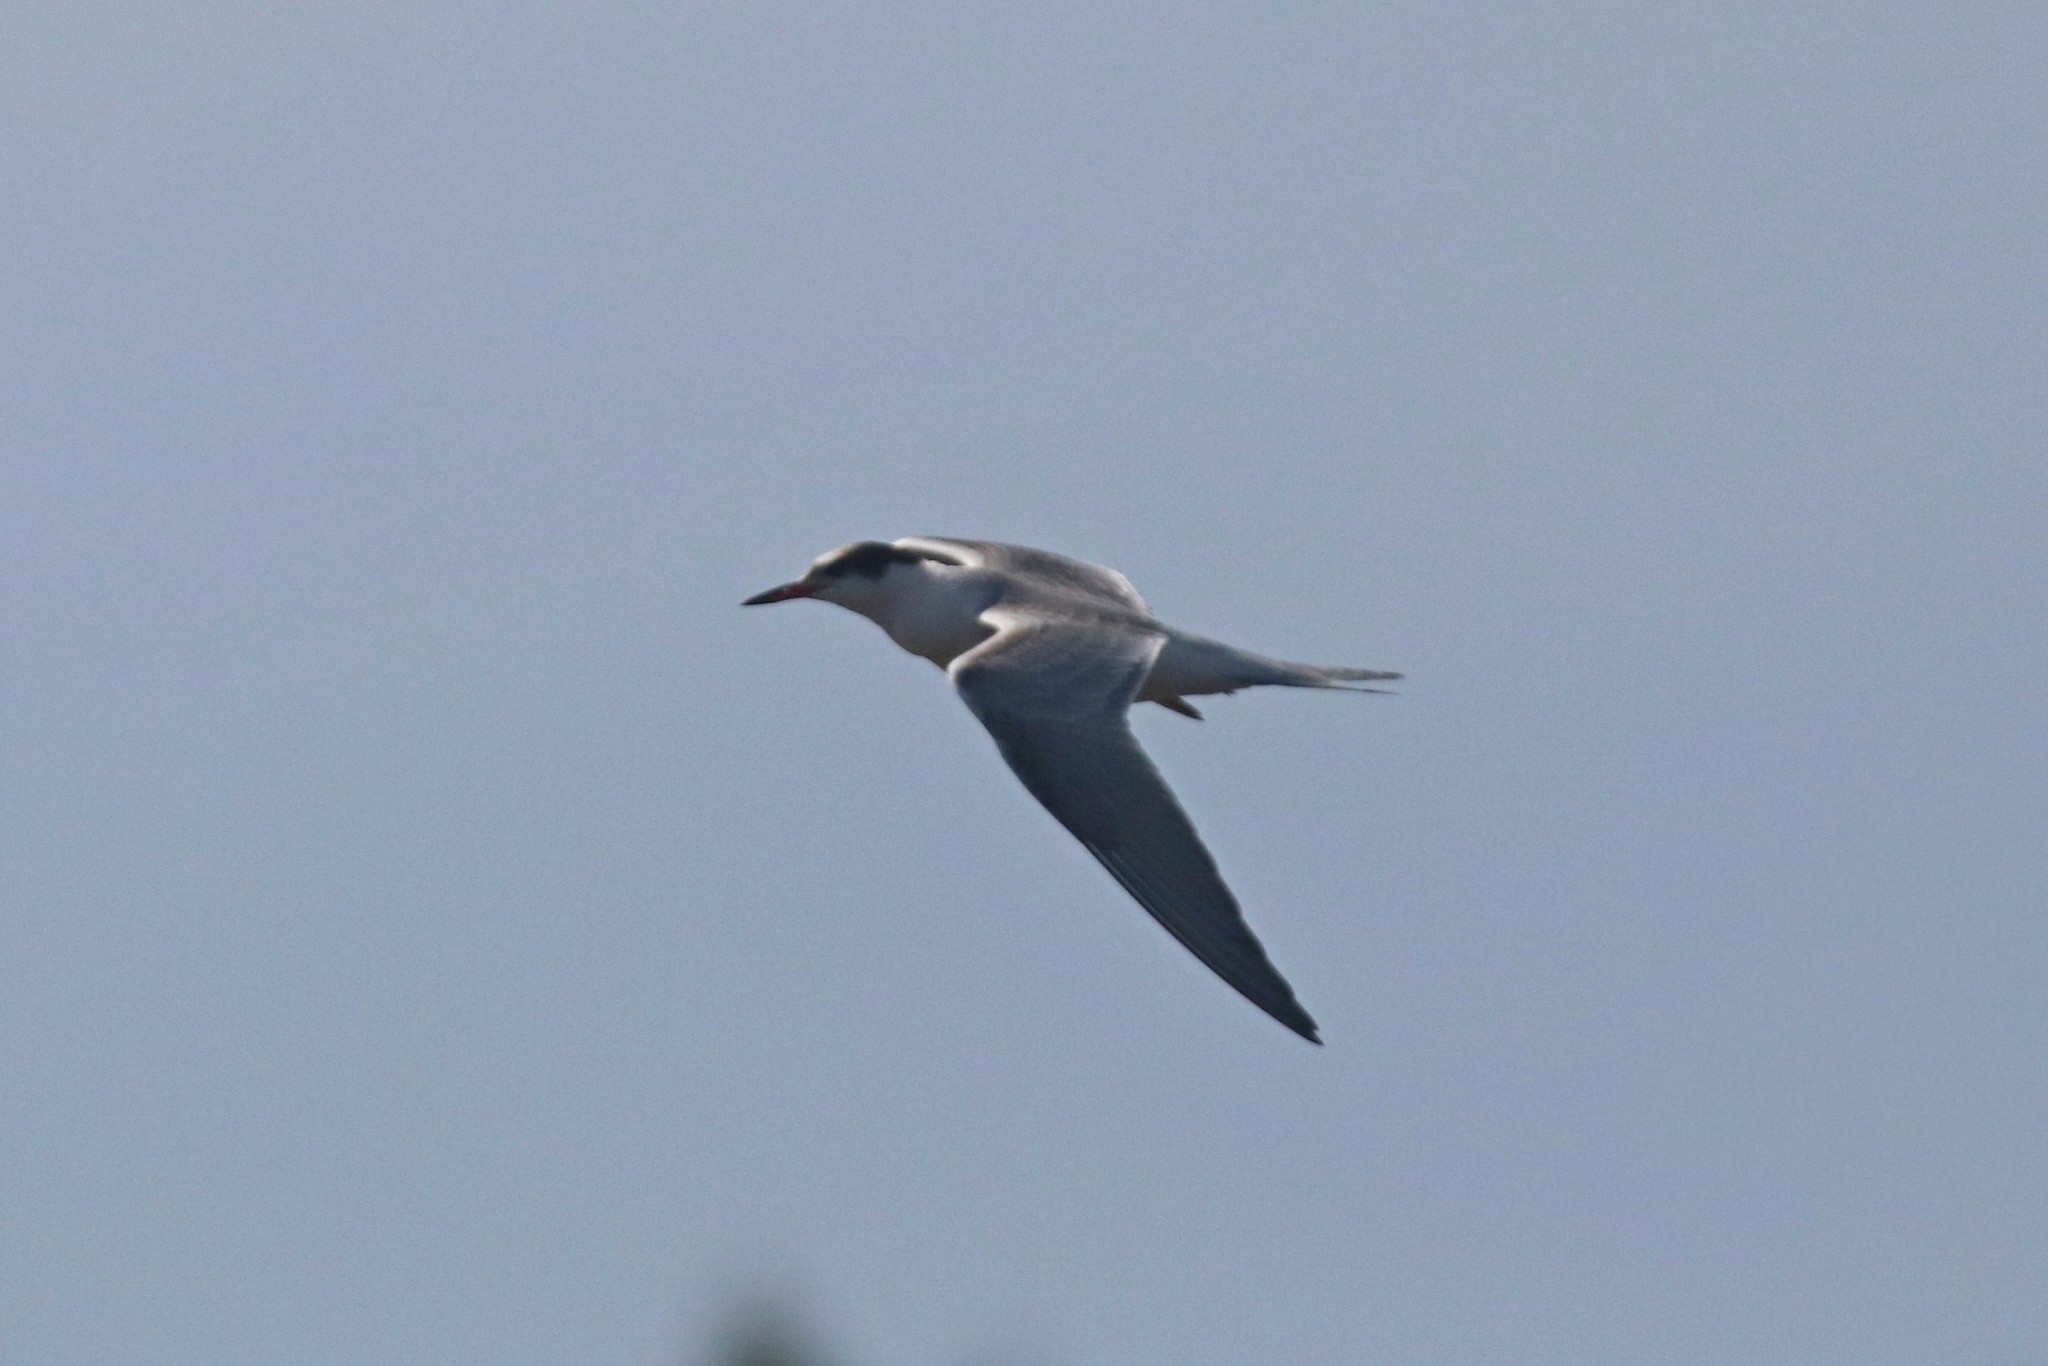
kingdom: Animalia
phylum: Chordata
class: Aves
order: Charadriiformes
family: Laridae
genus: Sterna
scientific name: Sterna hirundo
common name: Common tern
